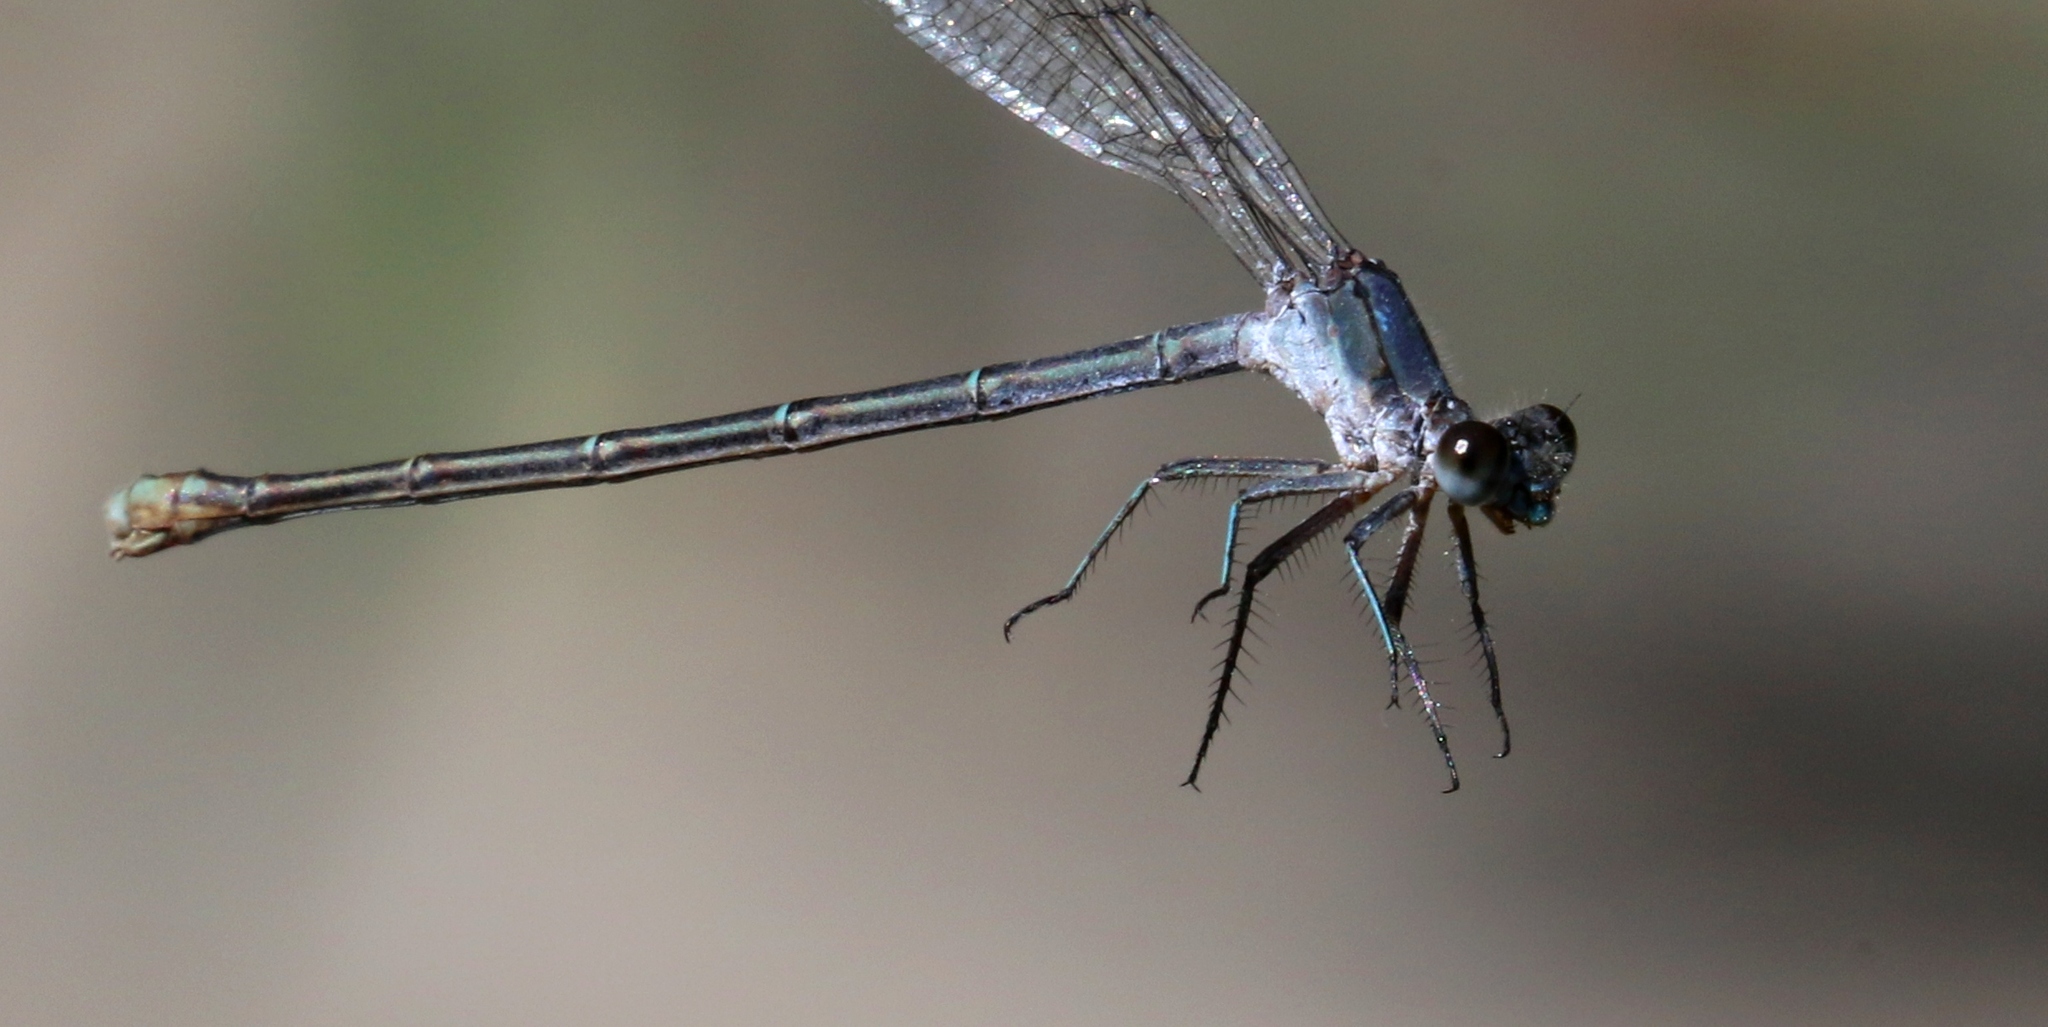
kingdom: Animalia
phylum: Arthropoda
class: Insecta
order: Odonata
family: Coenagrionidae
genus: Argia
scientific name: Argia moesta
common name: Powdered dancer
